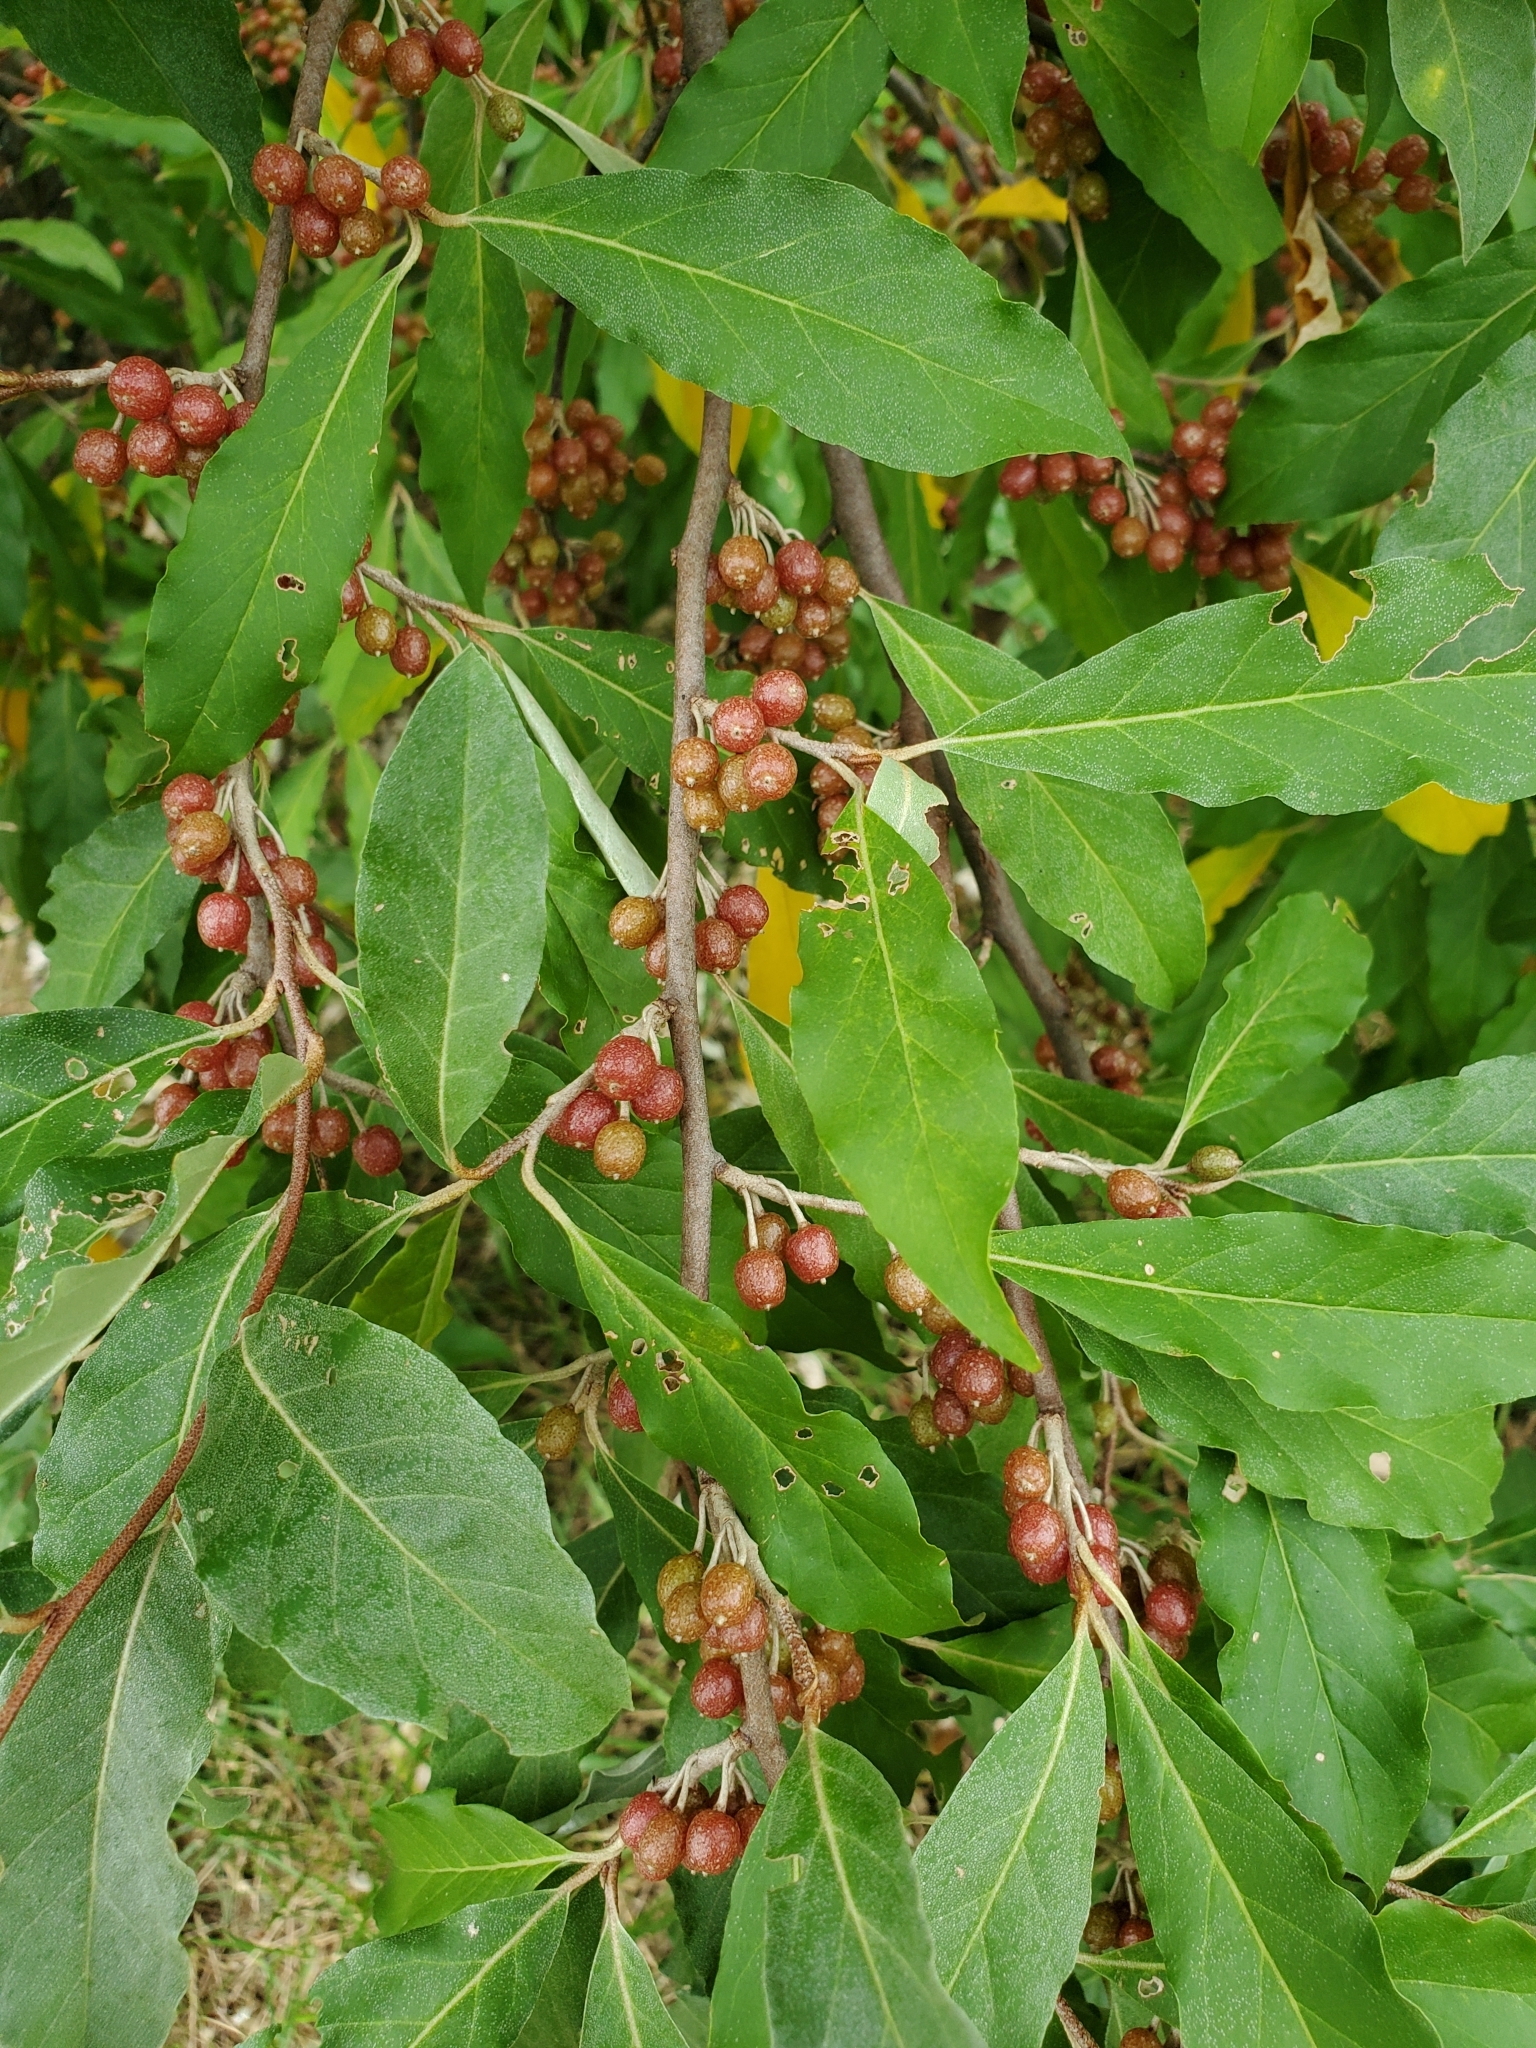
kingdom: Plantae
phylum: Tracheophyta
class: Magnoliopsida
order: Rosales
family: Elaeagnaceae
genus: Elaeagnus
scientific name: Elaeagnus umbellata
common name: Autumn olive
